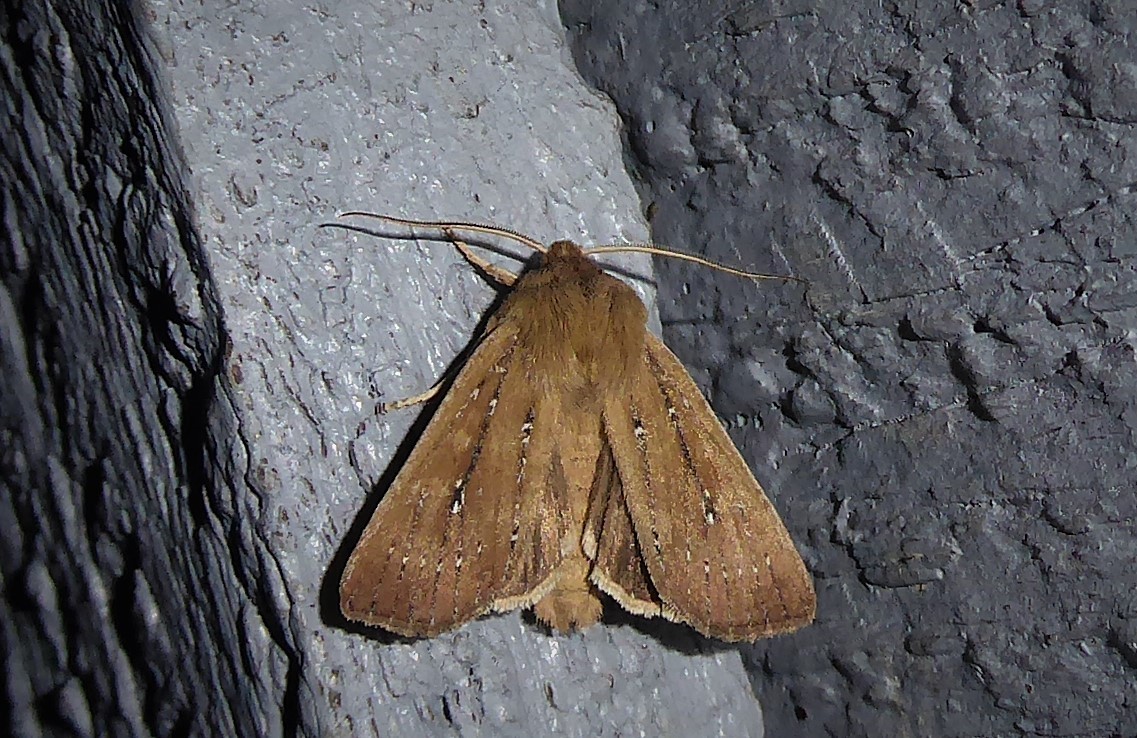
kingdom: Animalia
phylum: Arthropoda
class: Insecta
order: Lepidoptera
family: Noctuidae
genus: Ichneutica
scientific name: Ichneutica
